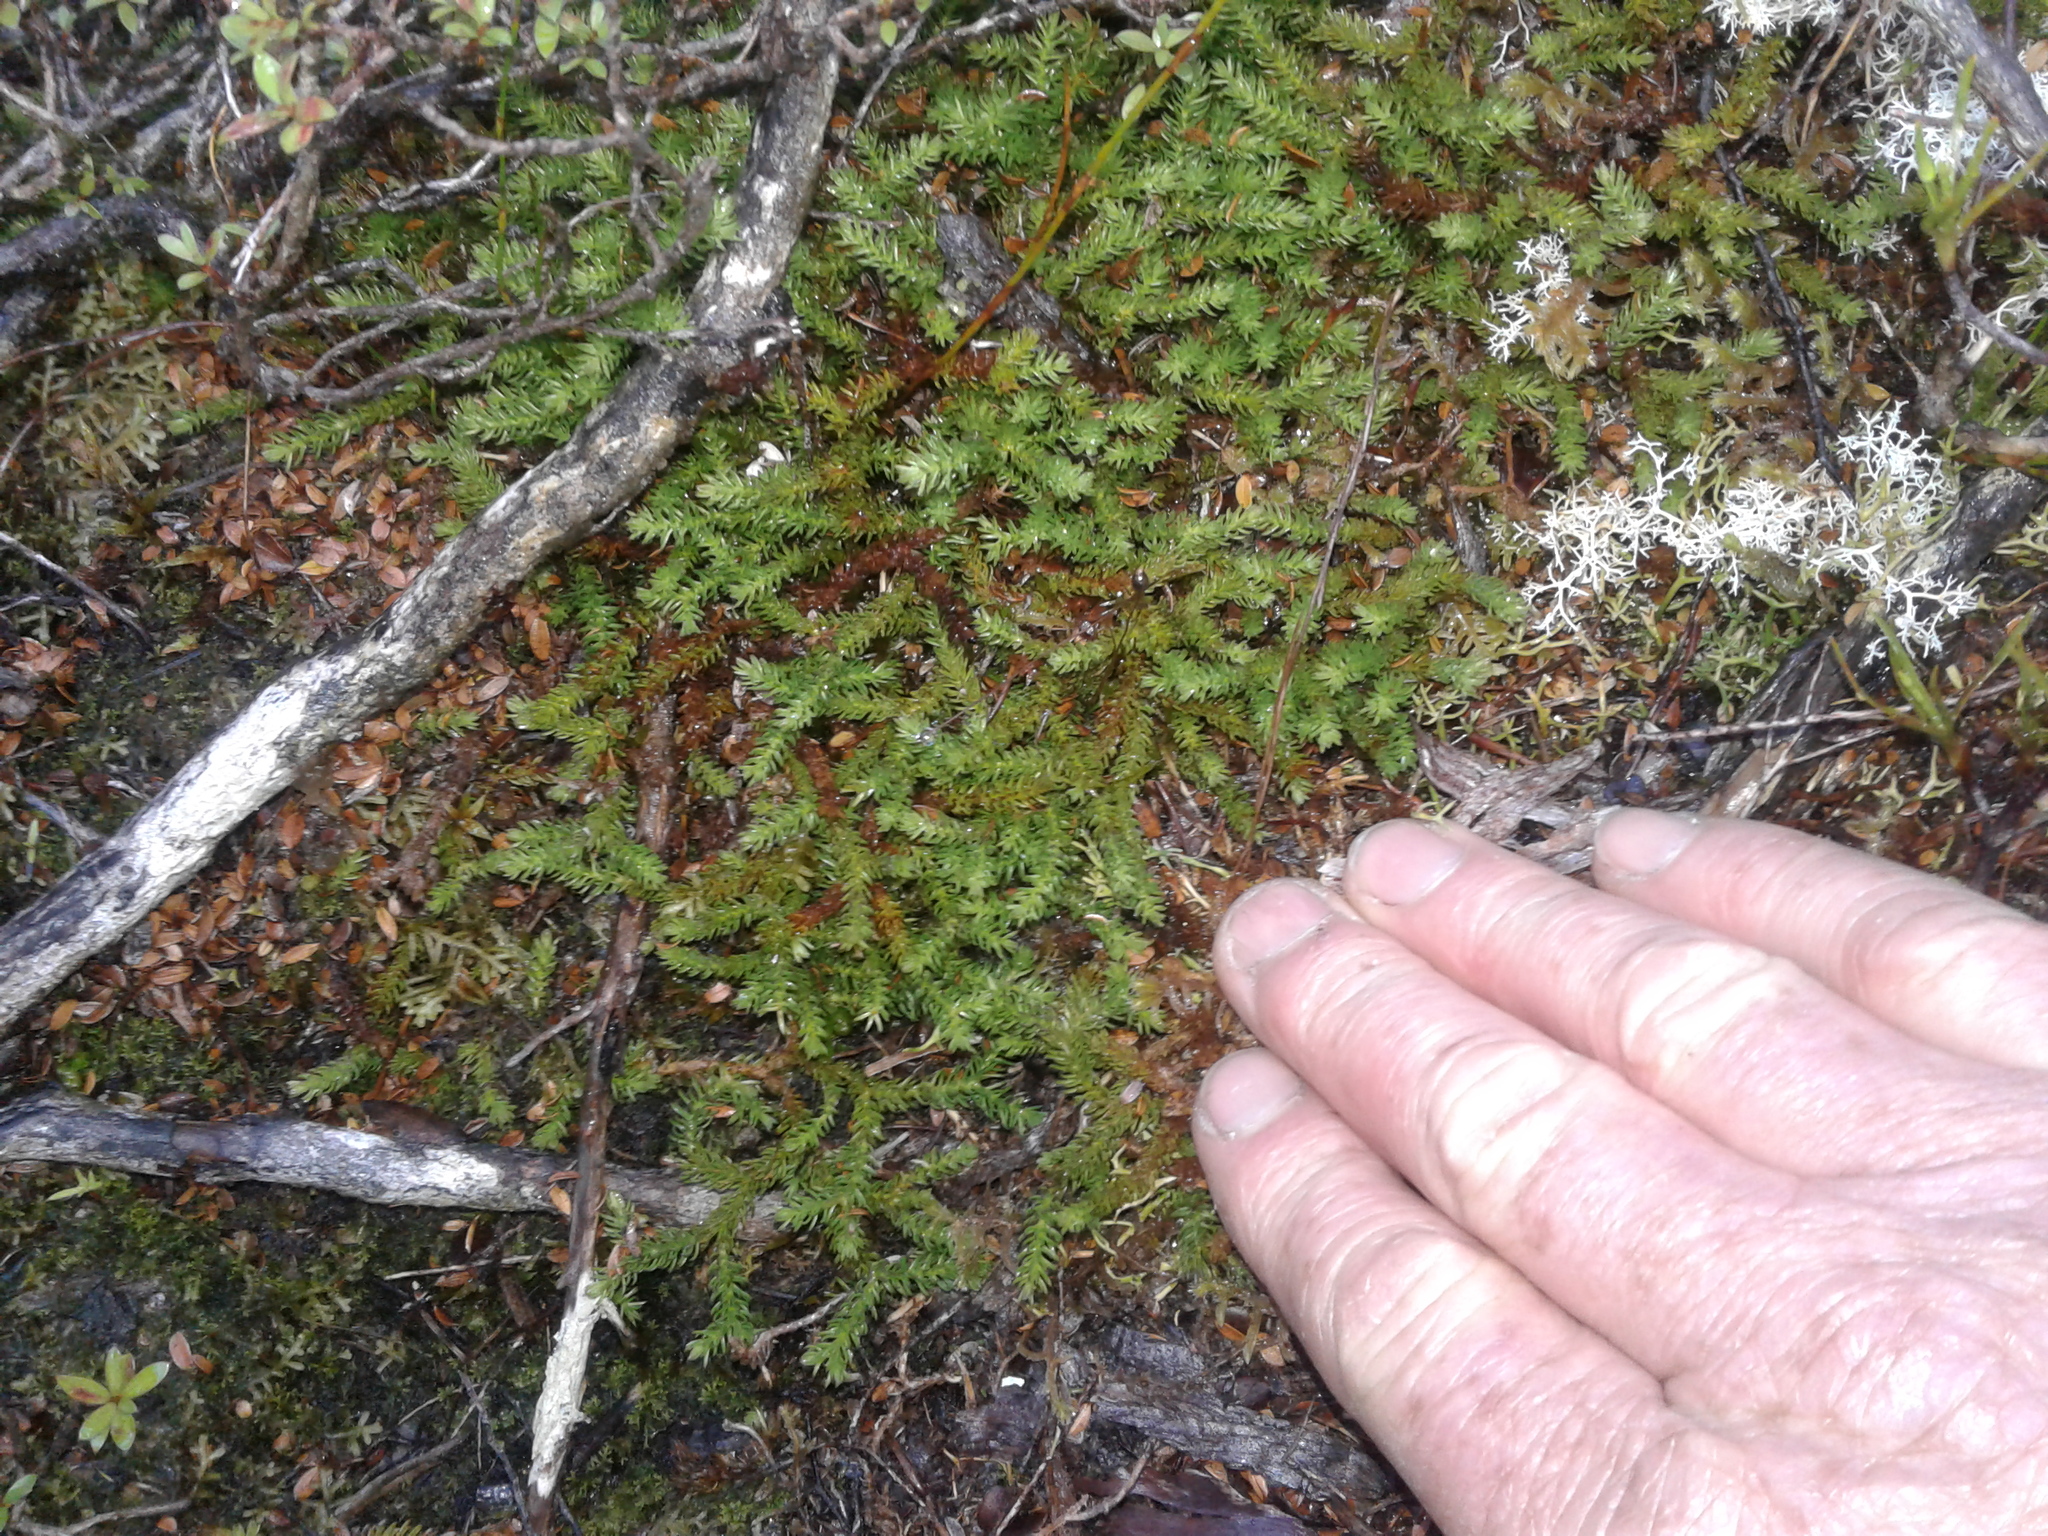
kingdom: Plantae
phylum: Tracheophyta
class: Lycopodiopsida
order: Lycopodiales
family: Lycopodiaceae
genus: Lateristachys
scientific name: Lateristachys diffusa
